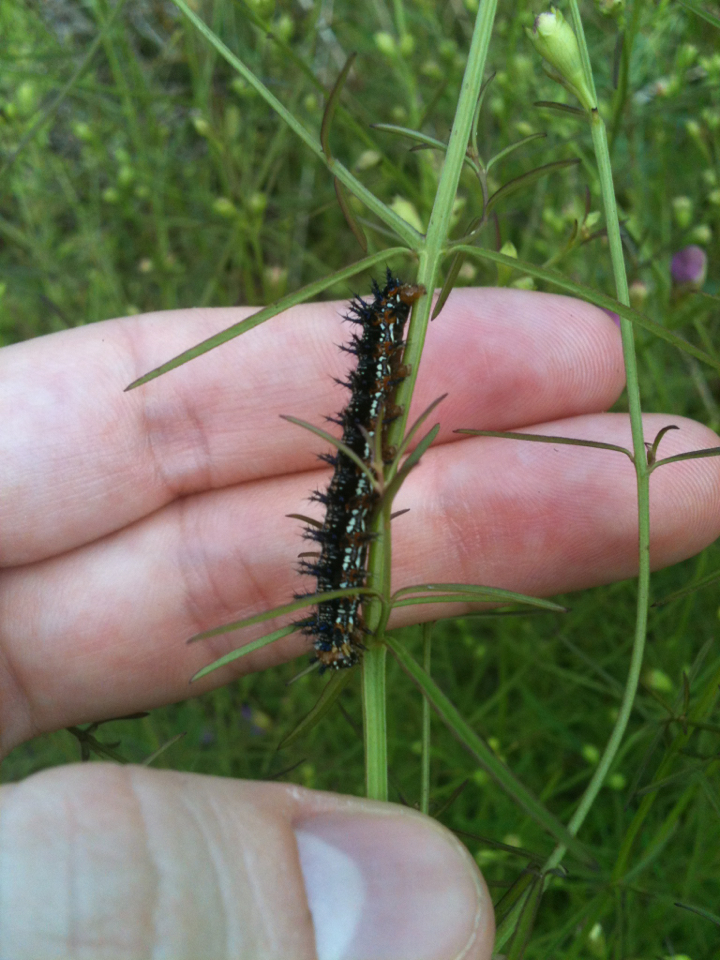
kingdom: Animalia
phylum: Arthropoda
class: Insecta
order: Lepidoptera
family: Nymphalidae
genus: Junonia
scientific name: Junonia coenia
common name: Common buckeye
